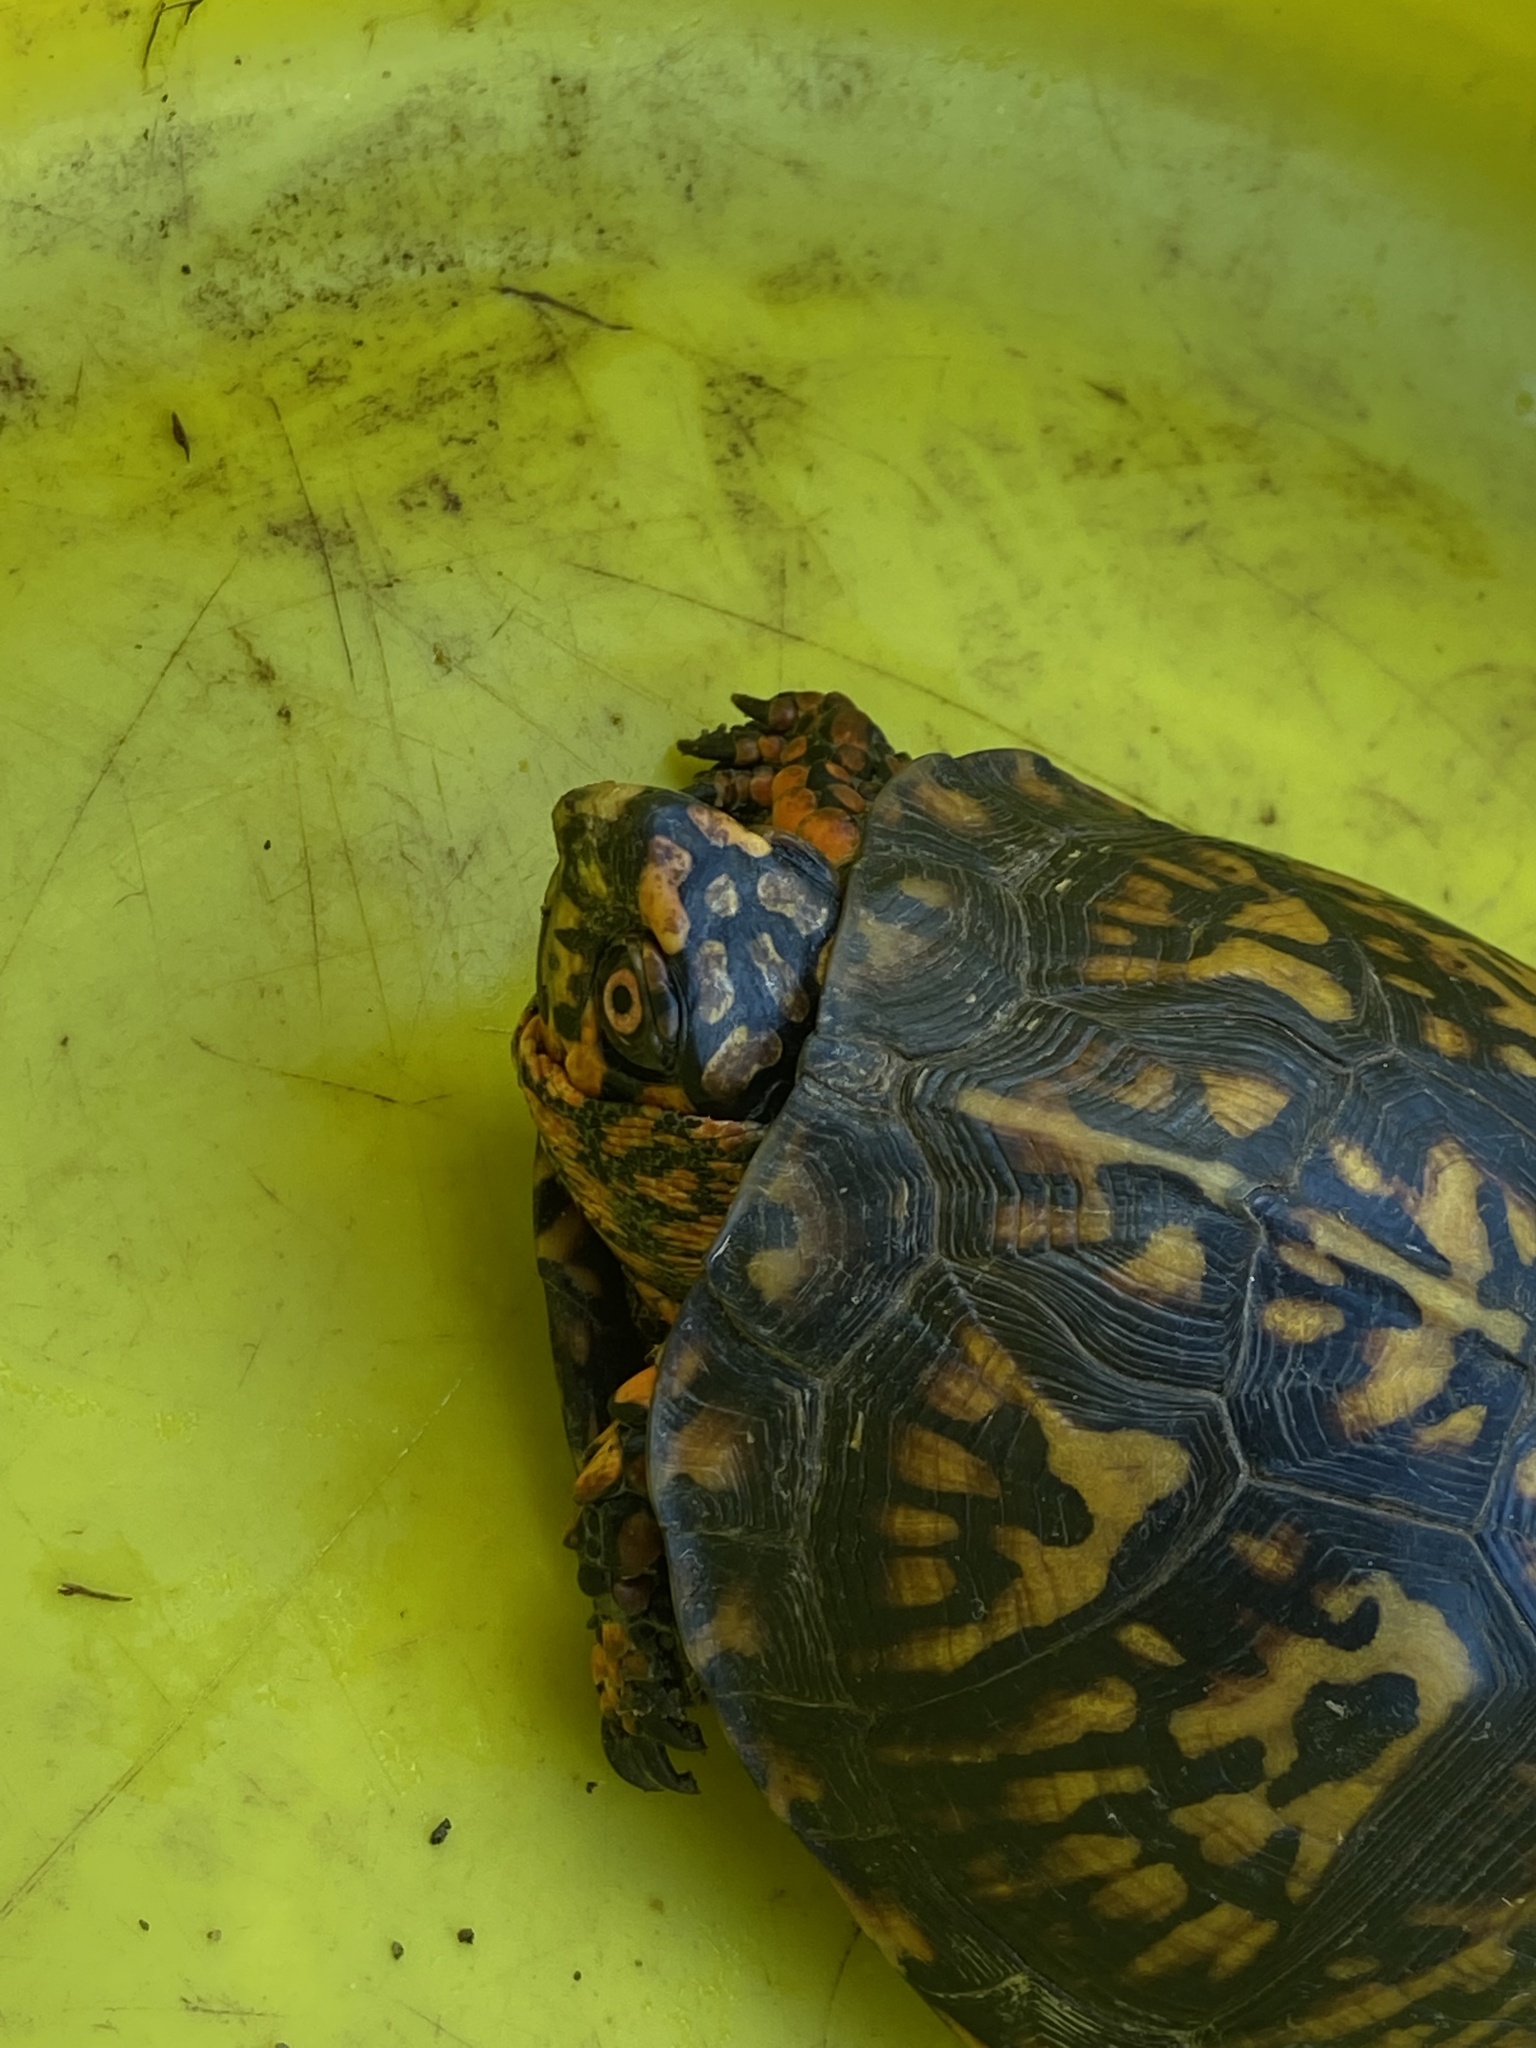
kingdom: Animalia
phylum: Chordata
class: Testudines
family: Emydidae
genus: Terrapene
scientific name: Terrapene carolina
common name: Common box turtle
